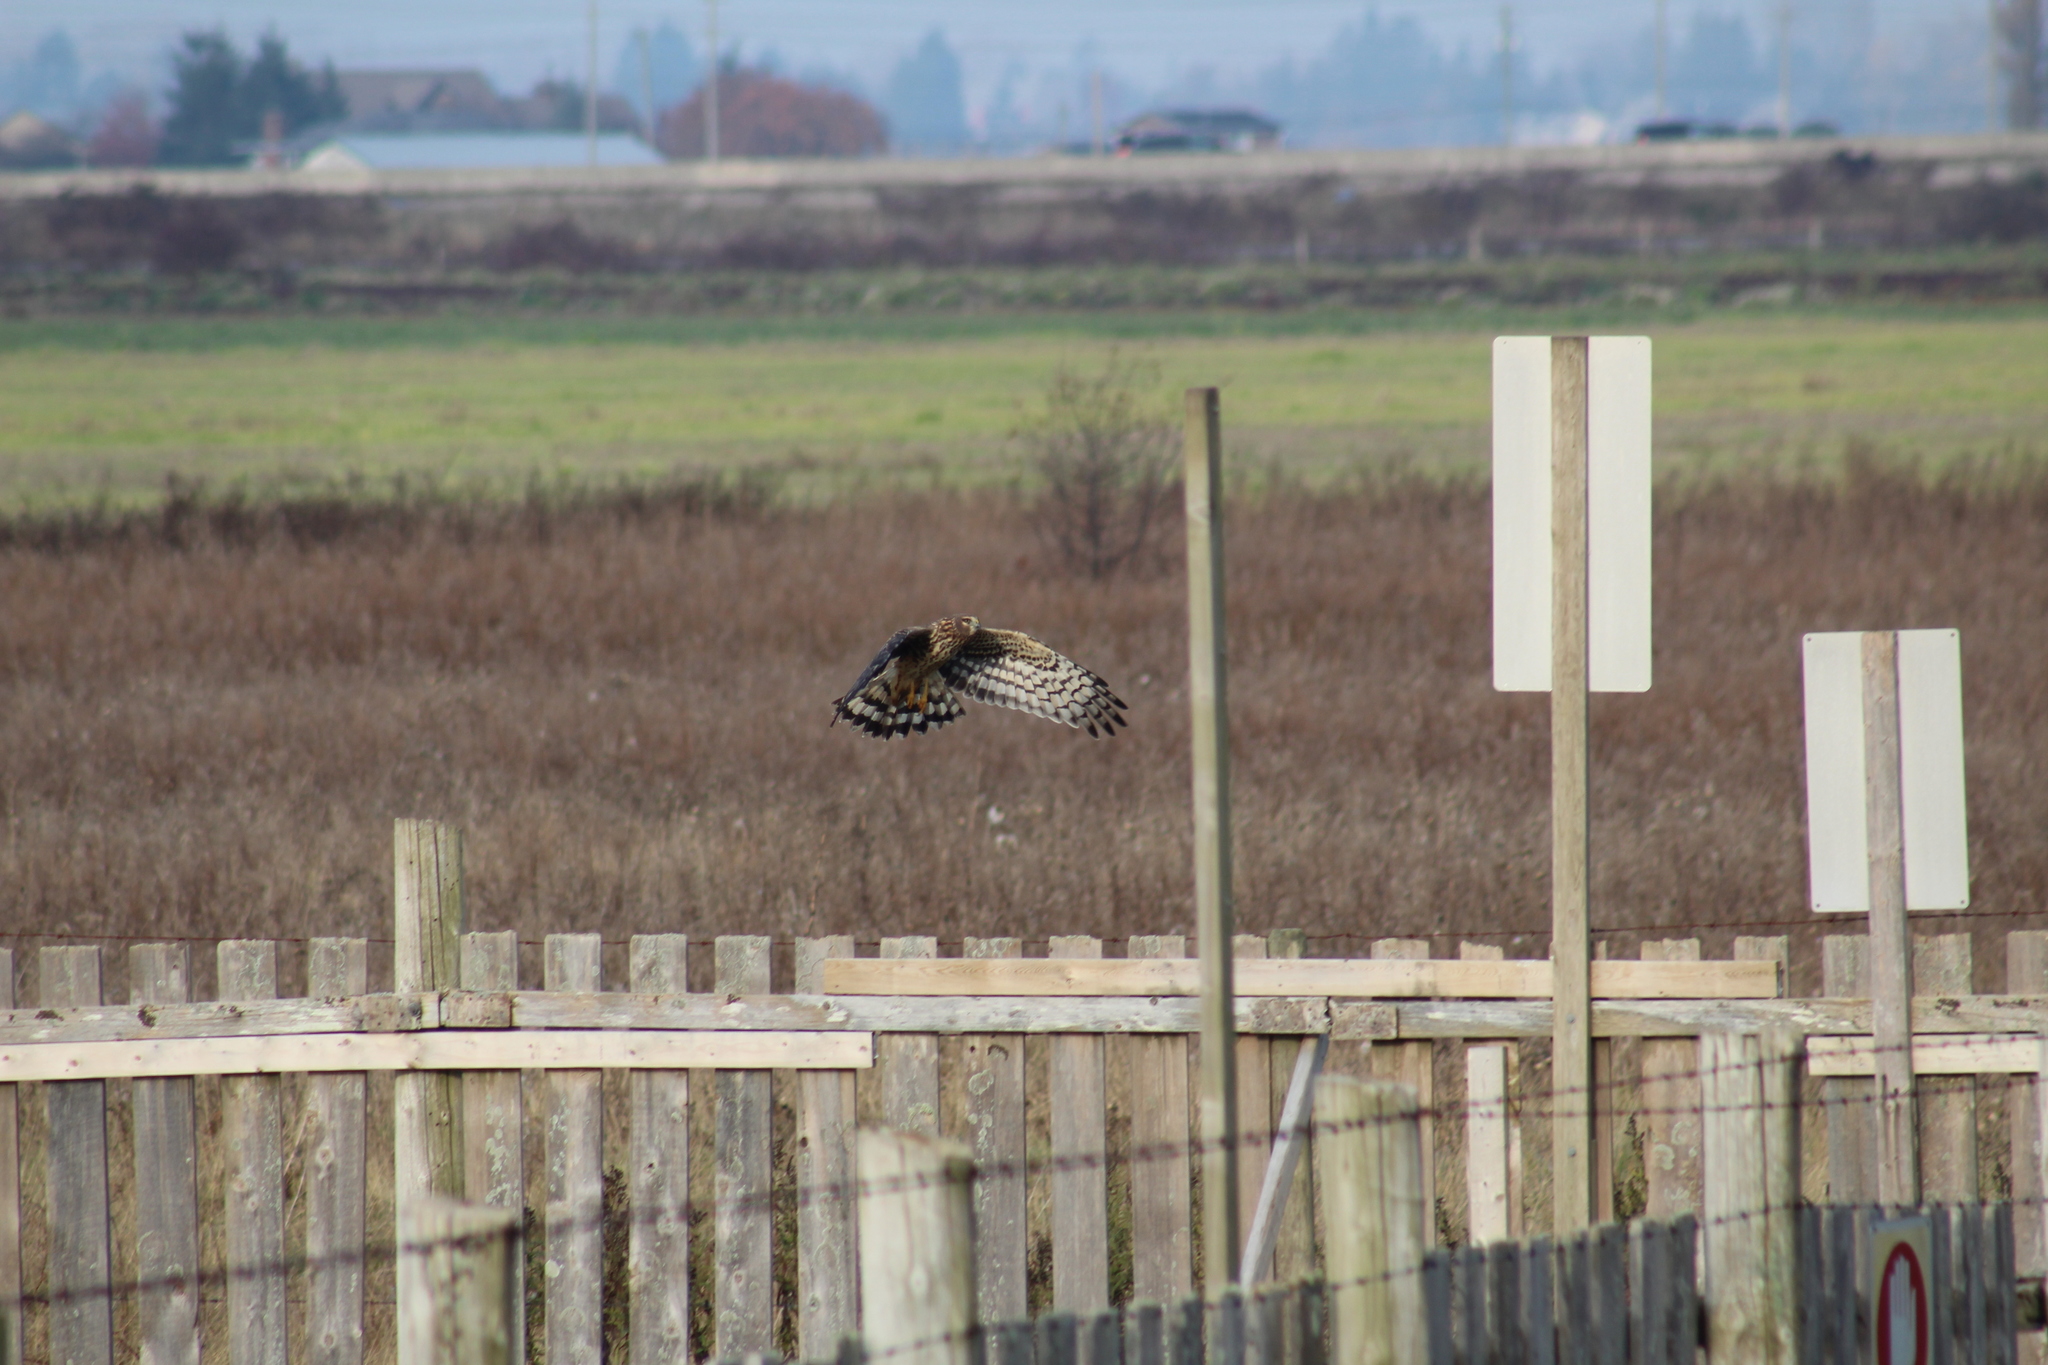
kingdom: Animalia
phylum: Chordata
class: Aves
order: Accipitriformes
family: Accipitridae
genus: Circus
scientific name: Circus cyaneus
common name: Hen harrier
